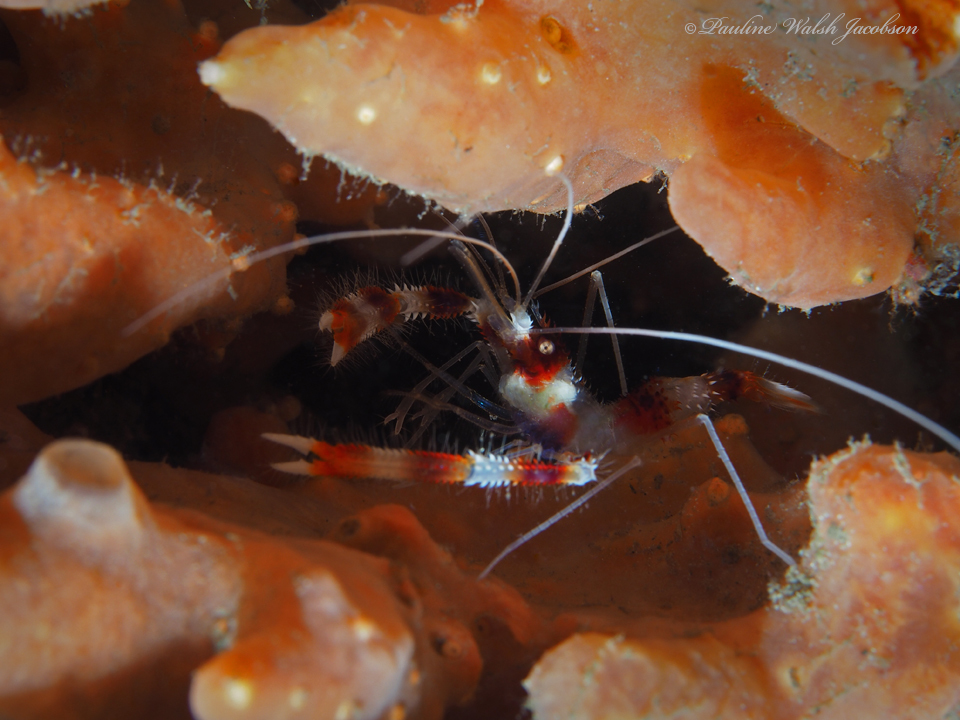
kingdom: Animalia
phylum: Arthropoda
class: Malacostraca
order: Decapoda
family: Stenopodidae
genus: Stenopus
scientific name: Stenopus hispidus
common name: Banded coral shrimp
